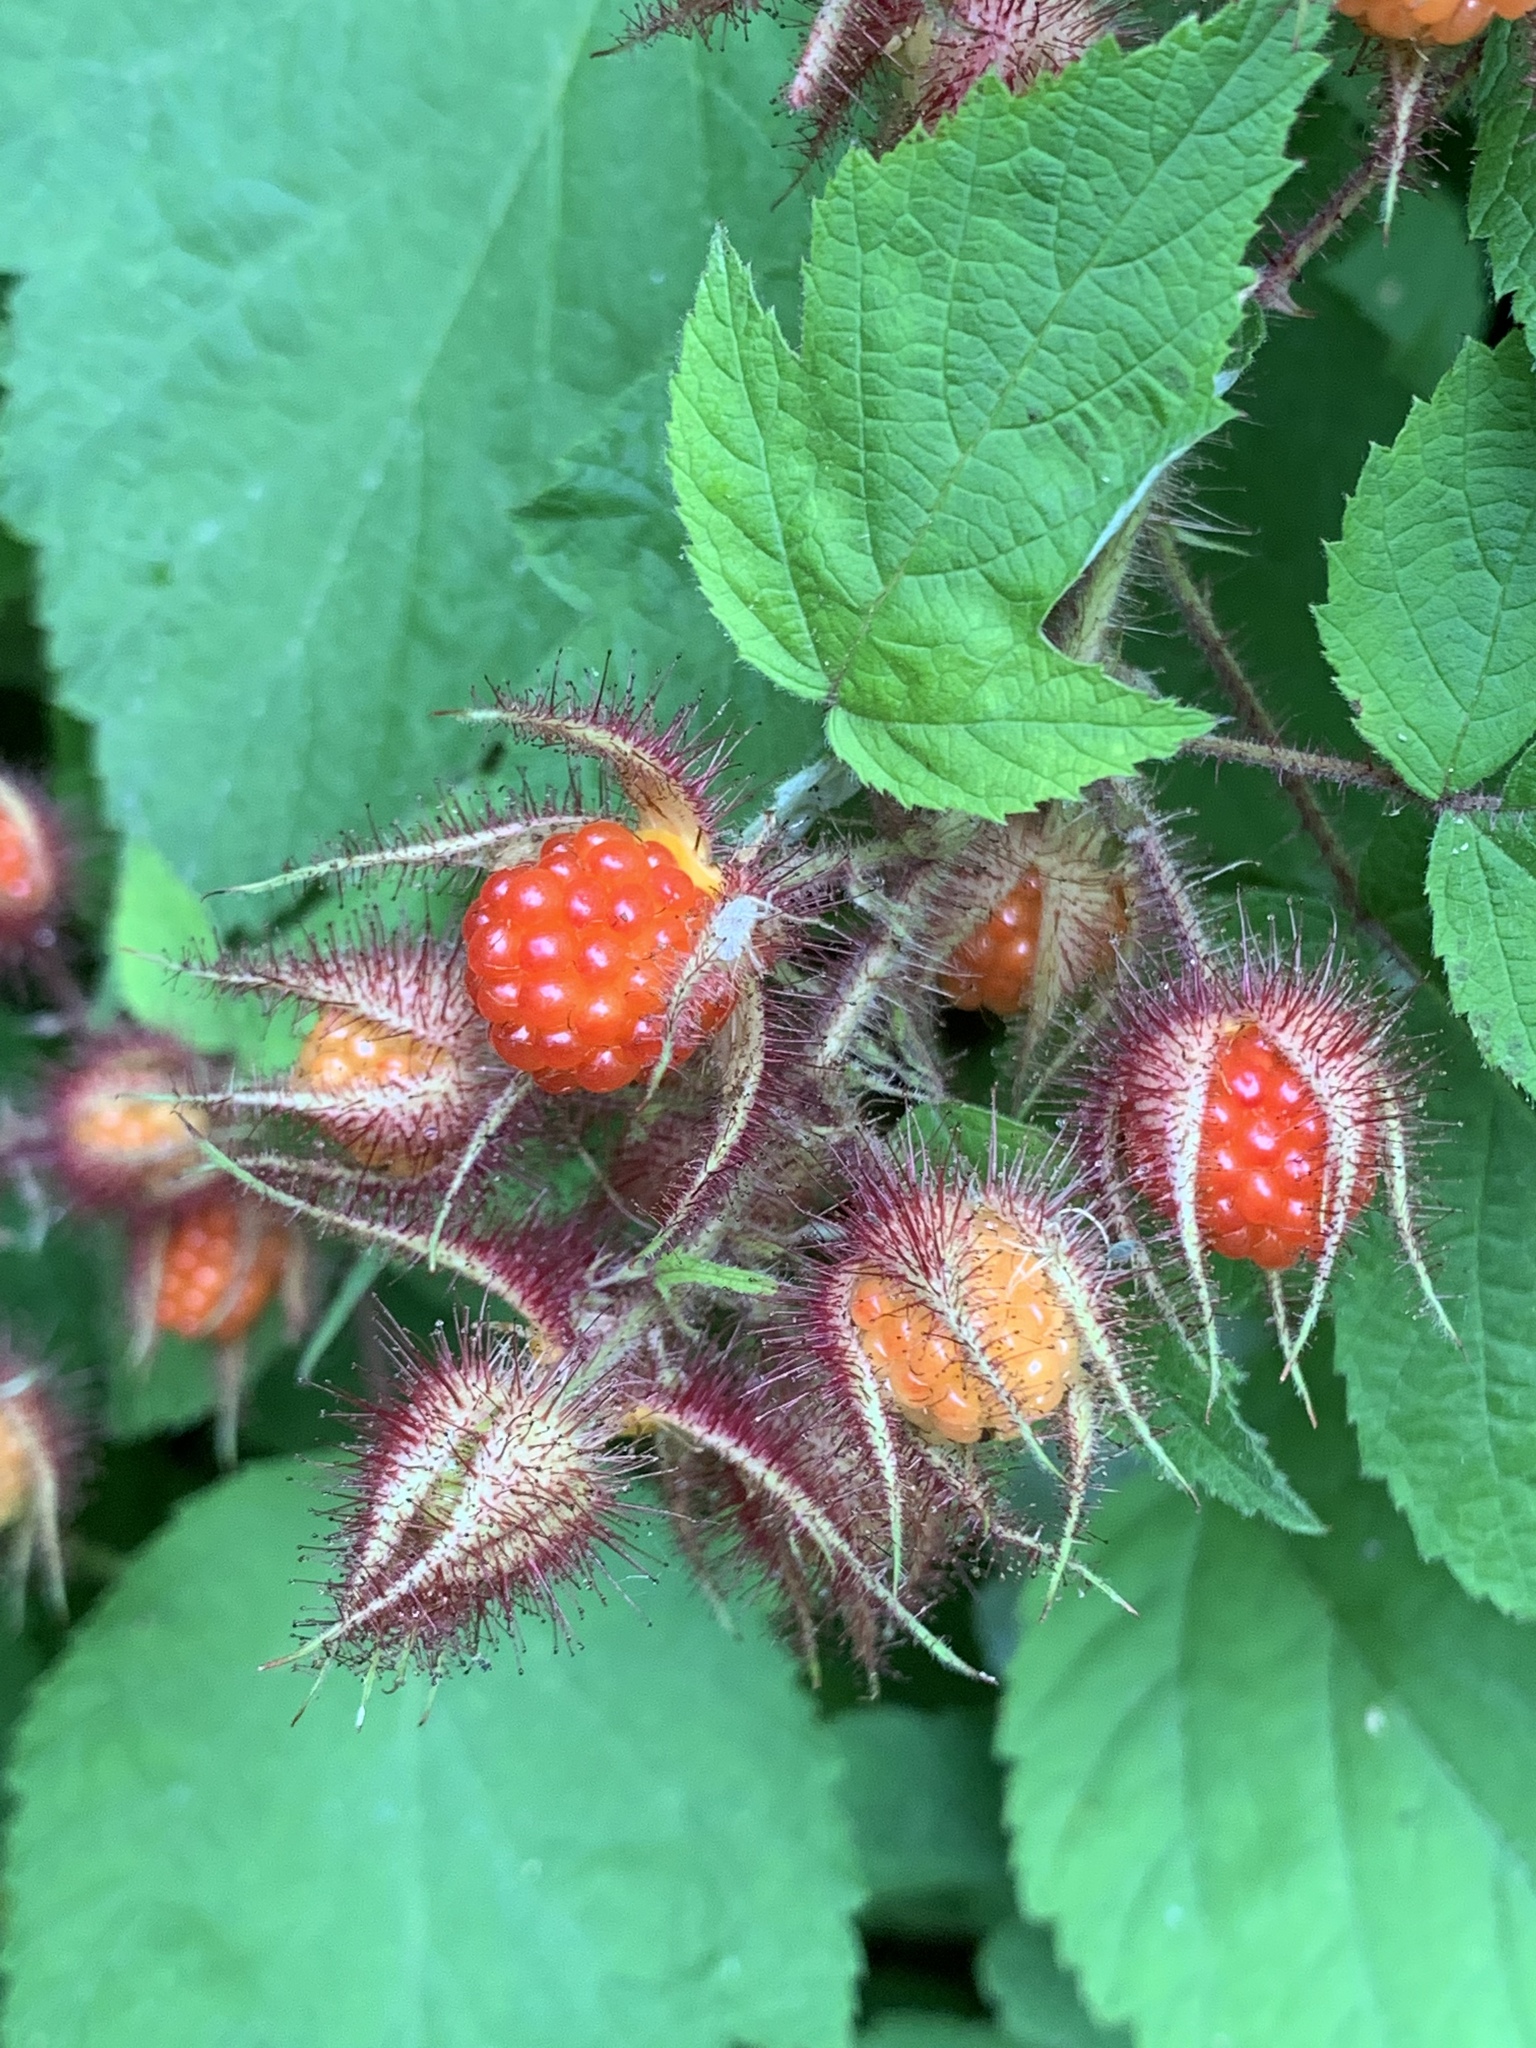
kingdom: Plantae
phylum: Tracheophyta
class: Magnoliopsida
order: Rosales
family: Rosaceae
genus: Rubus
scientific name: Rubus phoenicolasius
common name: Japanese wineberry
